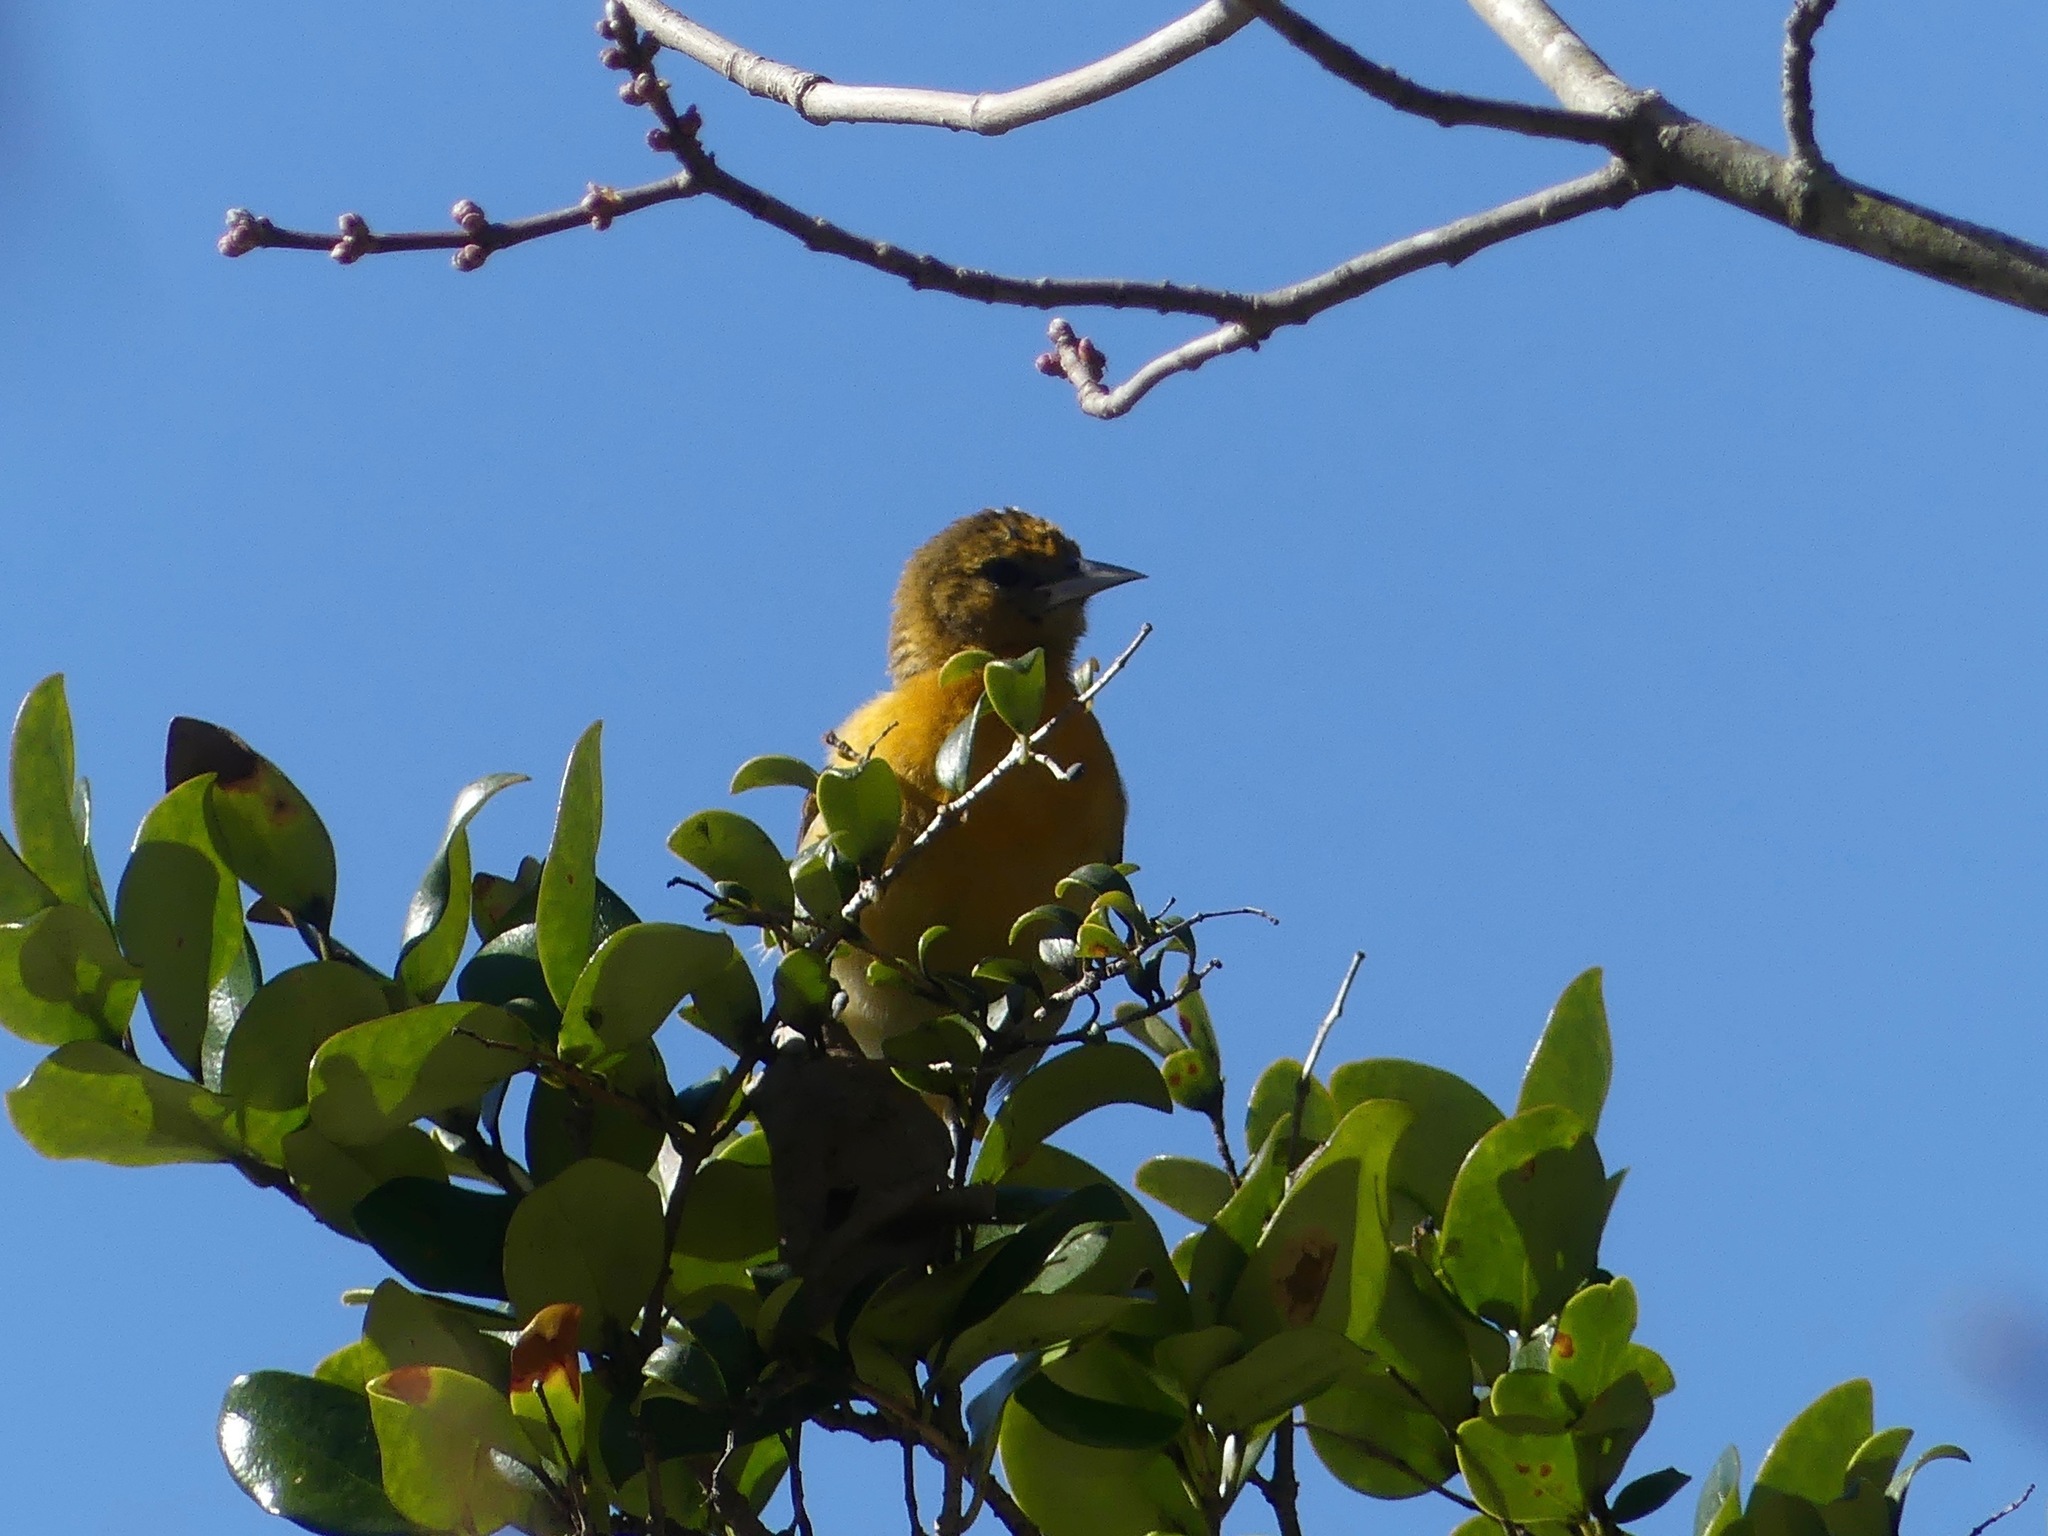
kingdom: Animalia
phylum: Chordata
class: Aves
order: Passeriformes
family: Icteridae
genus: Icterus
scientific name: Icterus galbula
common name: Baltimore oriole
